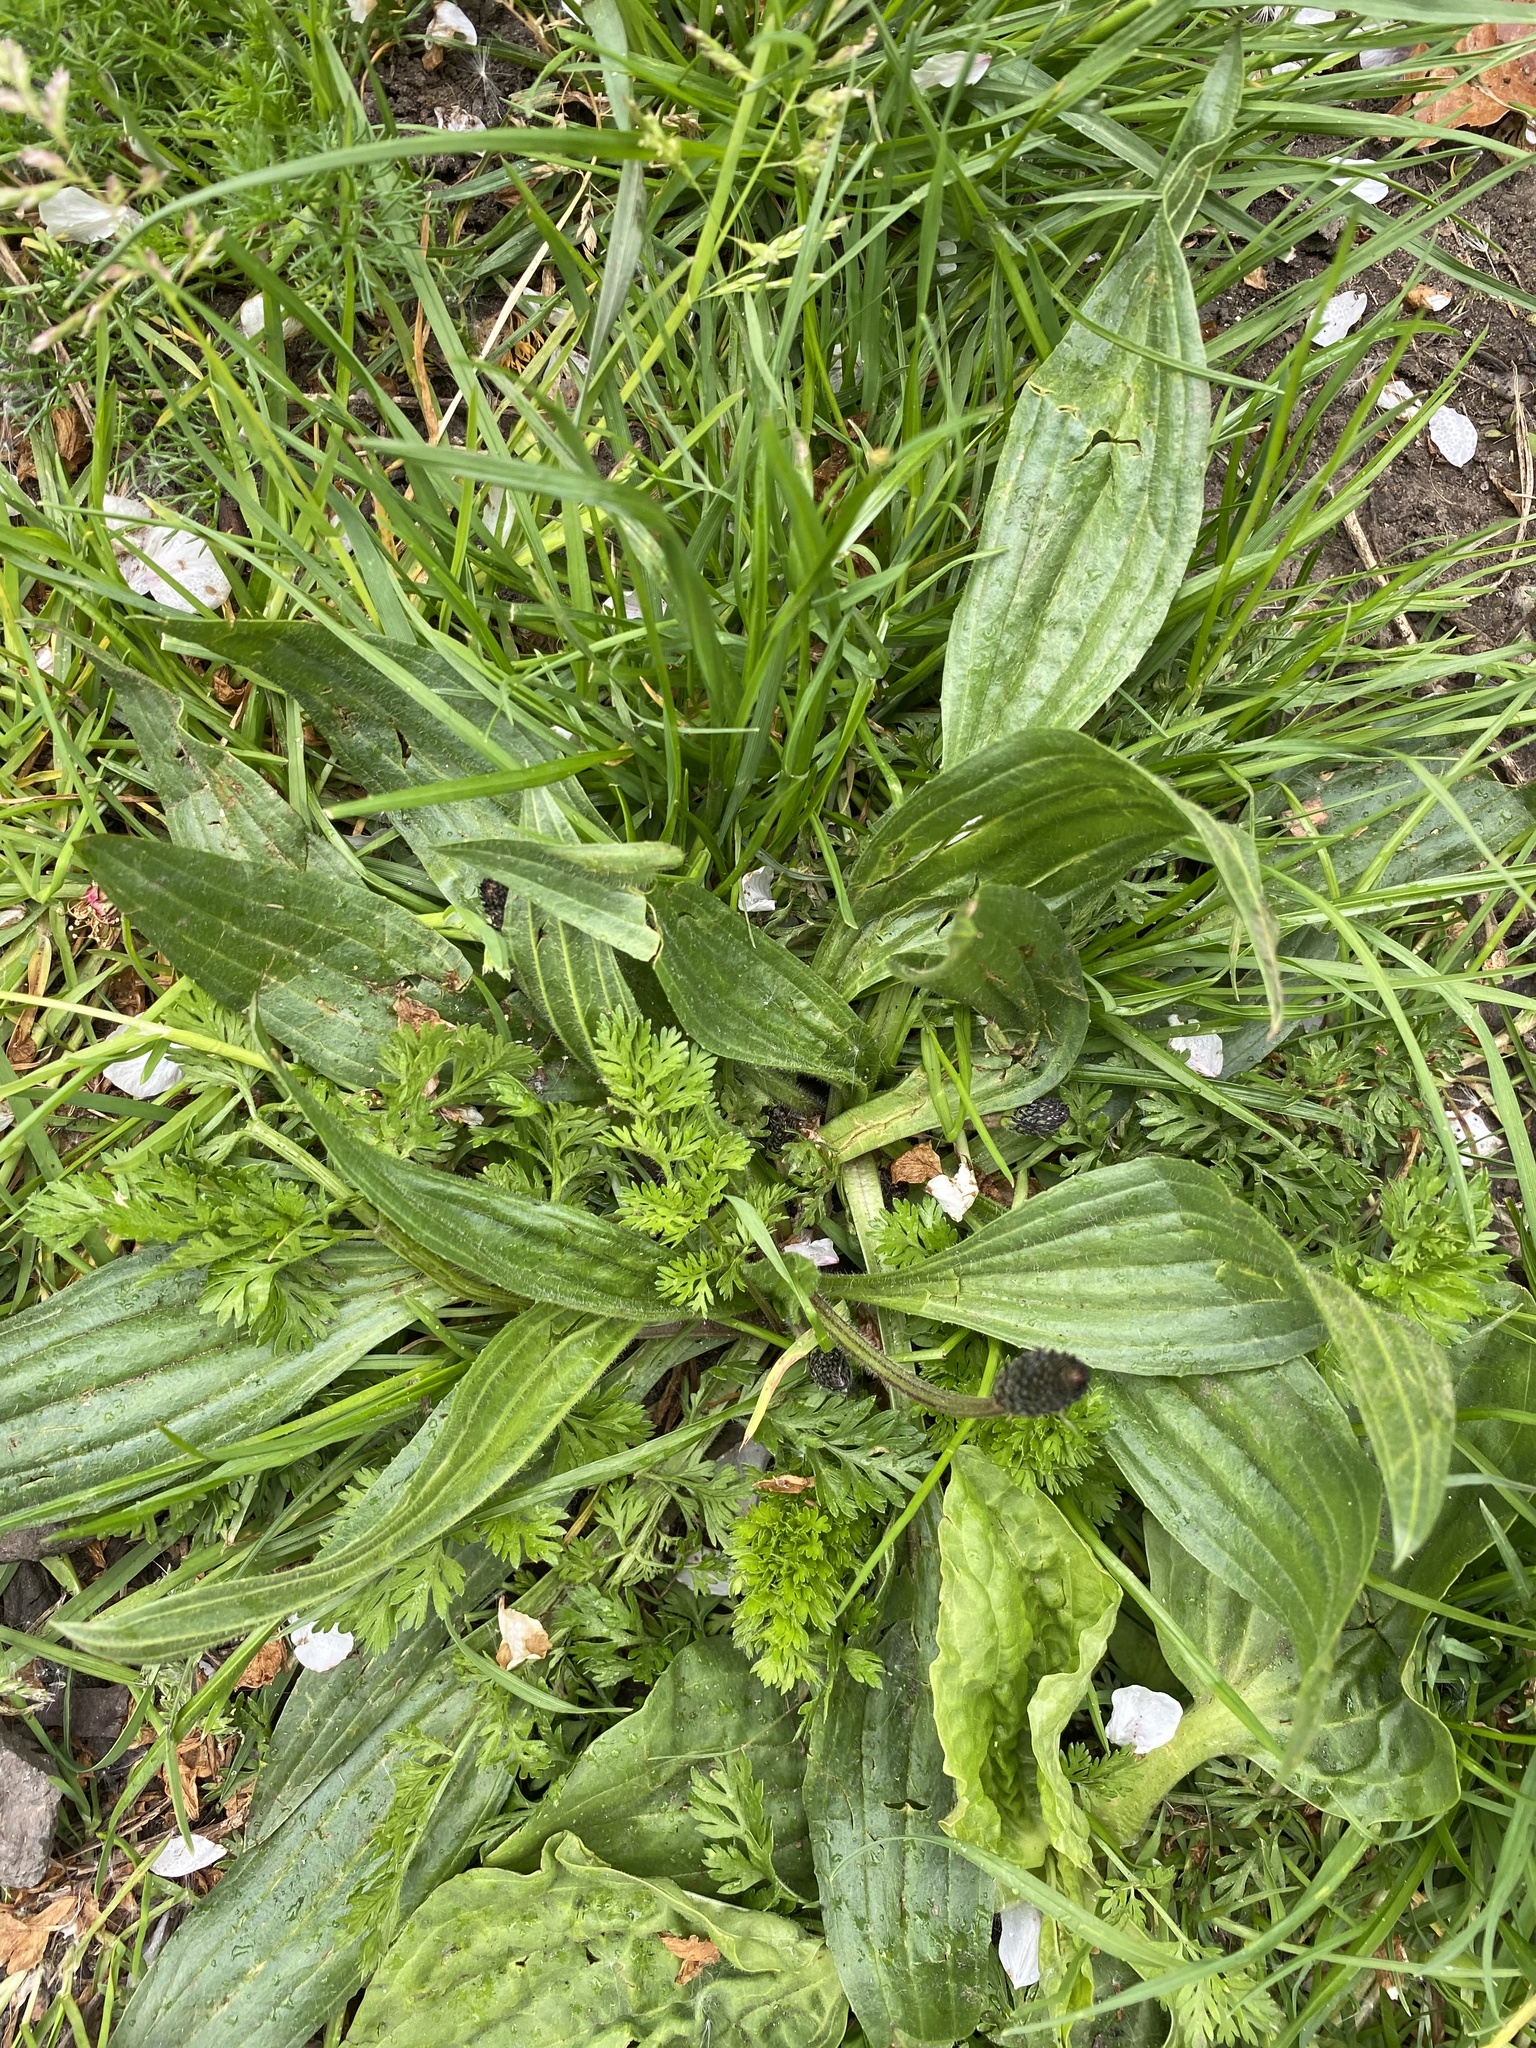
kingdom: Plantae
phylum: Tracheophyta
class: Magnoliopsida
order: Lamiales
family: Plantaginaceae
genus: Plantago
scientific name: Plantago lanceolata
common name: Ribwort plantain
